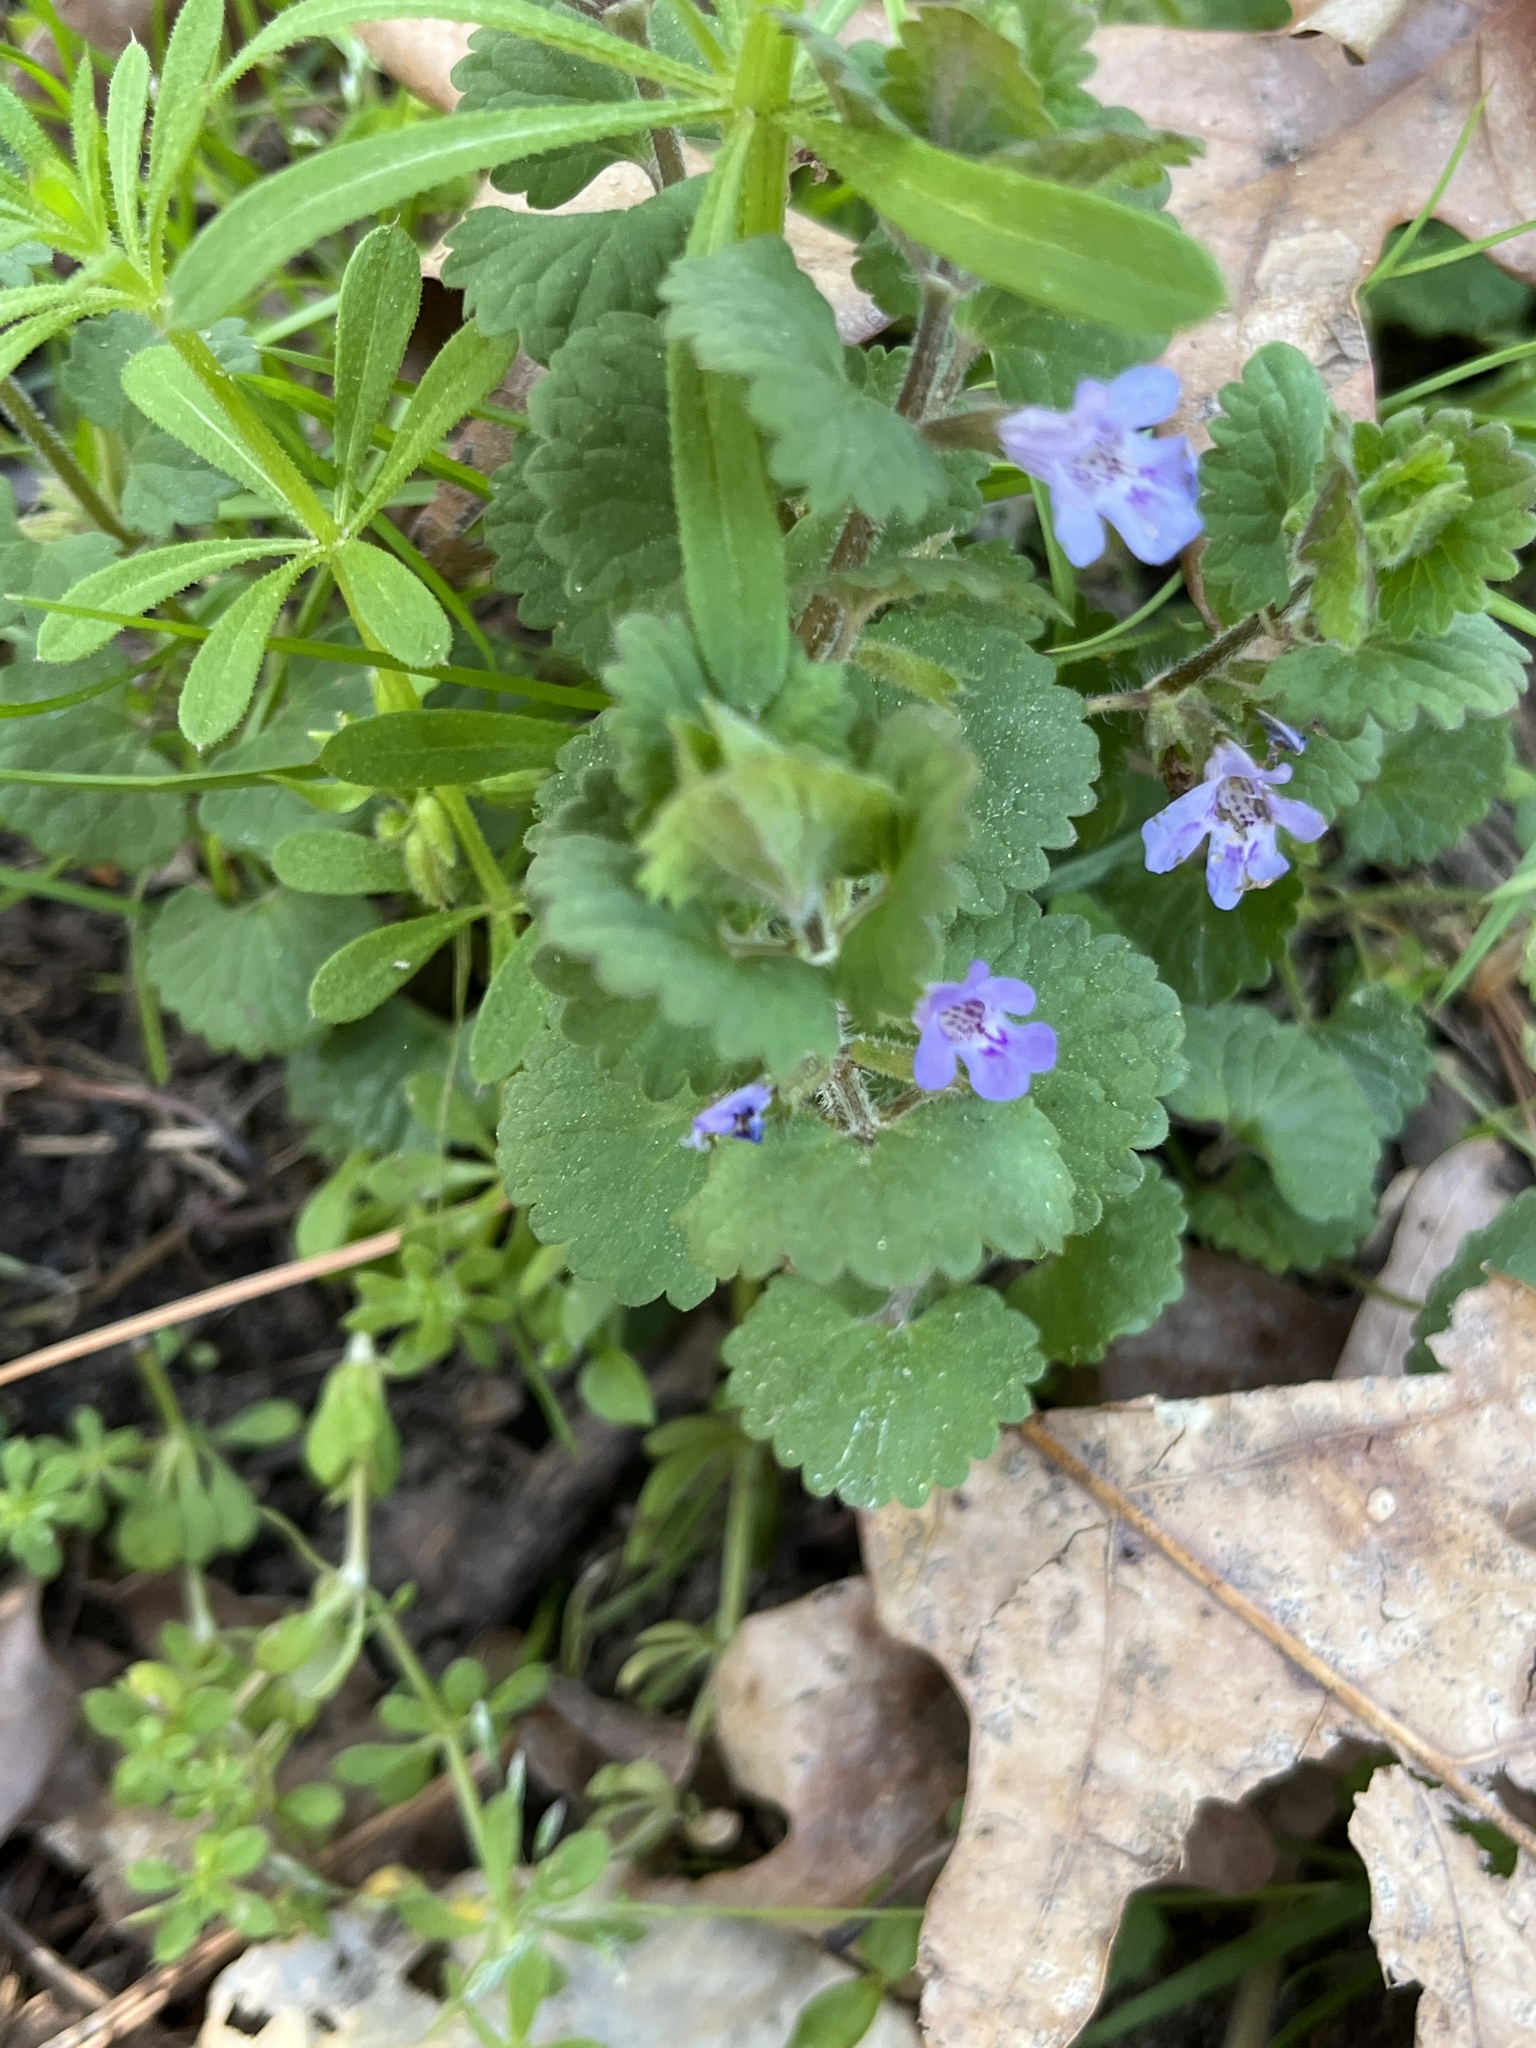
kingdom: Plantae
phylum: Tracheophyta
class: Magnoliopsida
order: Lamiales
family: Lamiaceae
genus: Glechoma
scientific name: Glechoma hederacea
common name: Ground ivy
